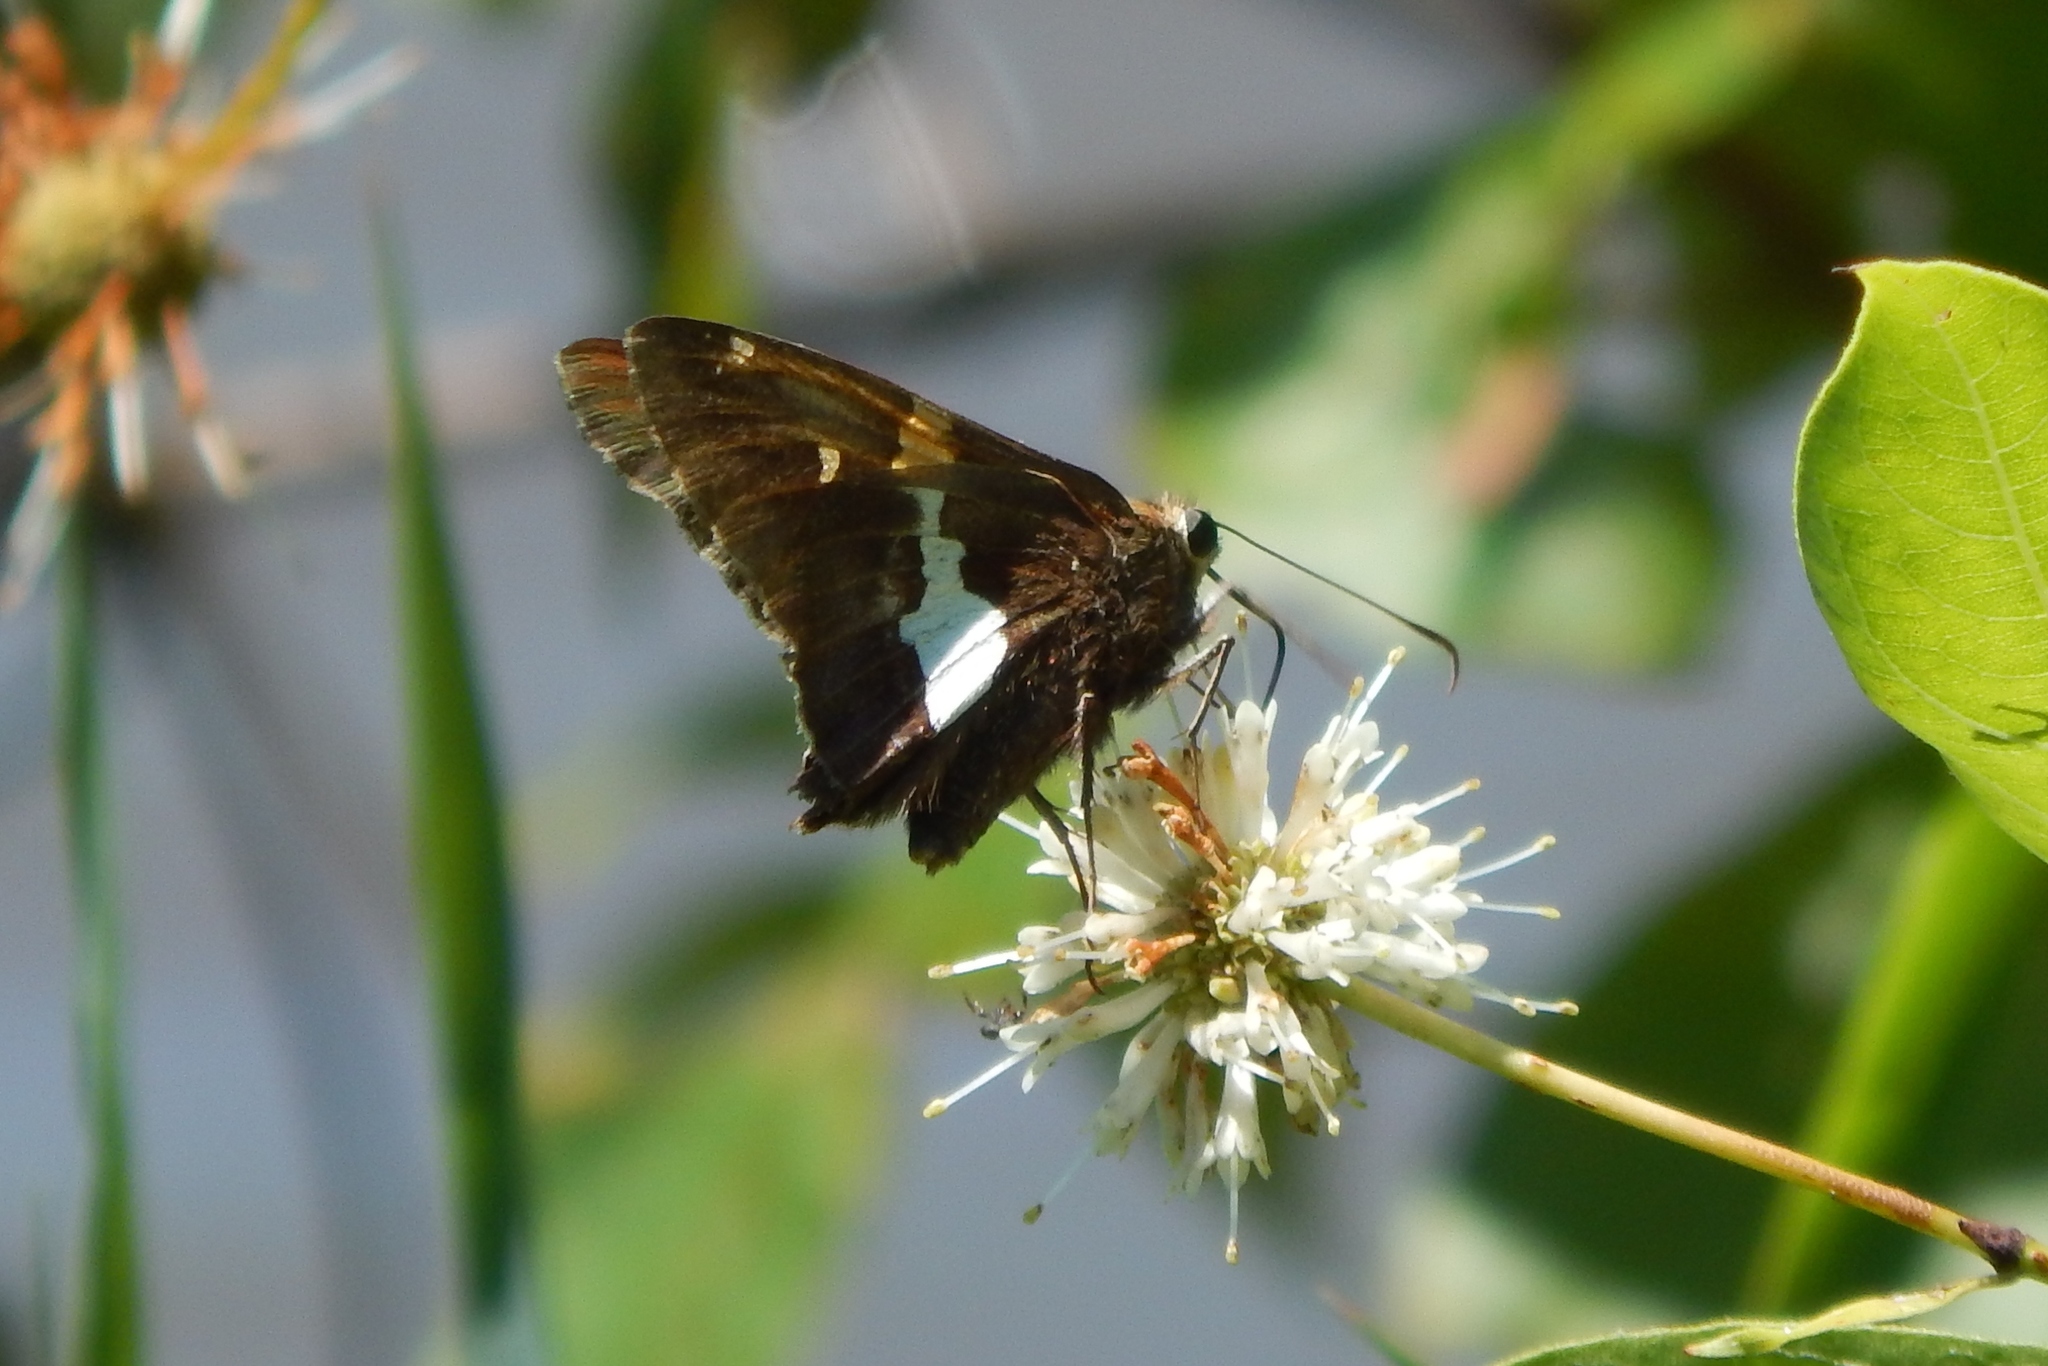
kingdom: Animalia
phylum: Arthropoda
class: Insecta
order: Lepidoptera
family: Hesperiidae
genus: Epargyreus
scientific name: Epargyreus clarus
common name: Silver-spotted skipper
